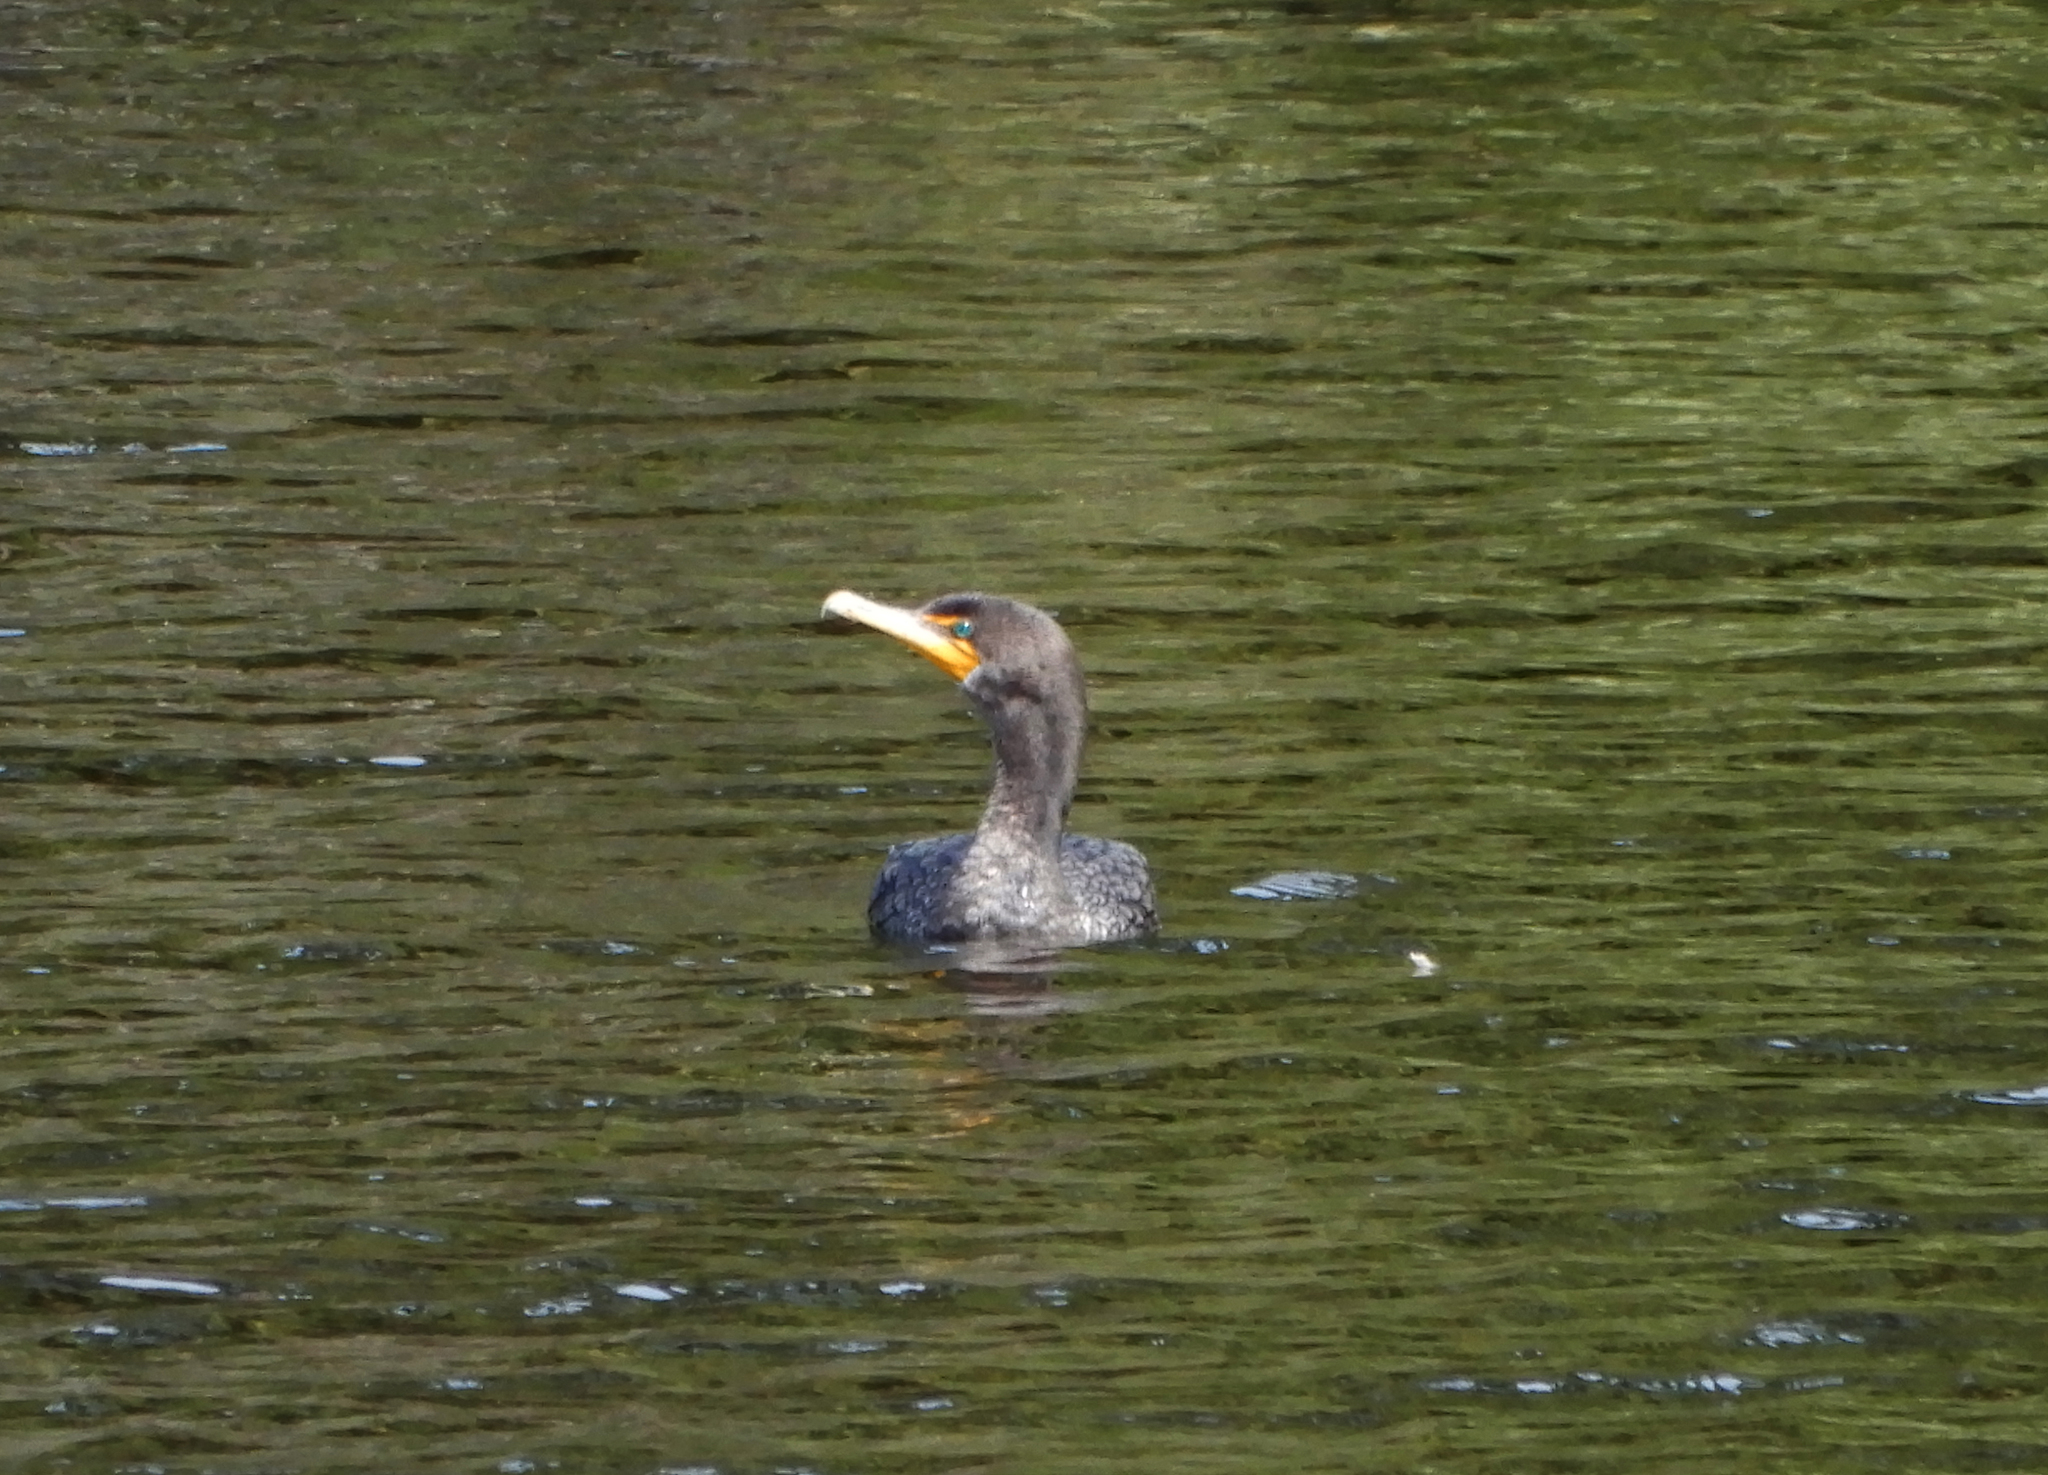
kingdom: Animalia
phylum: Chordata
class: Aves
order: Suliformes
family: Phalacrocoracidae
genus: Phalacrocorax
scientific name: Phalacrocorax auritus
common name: Double-crested cormorant
